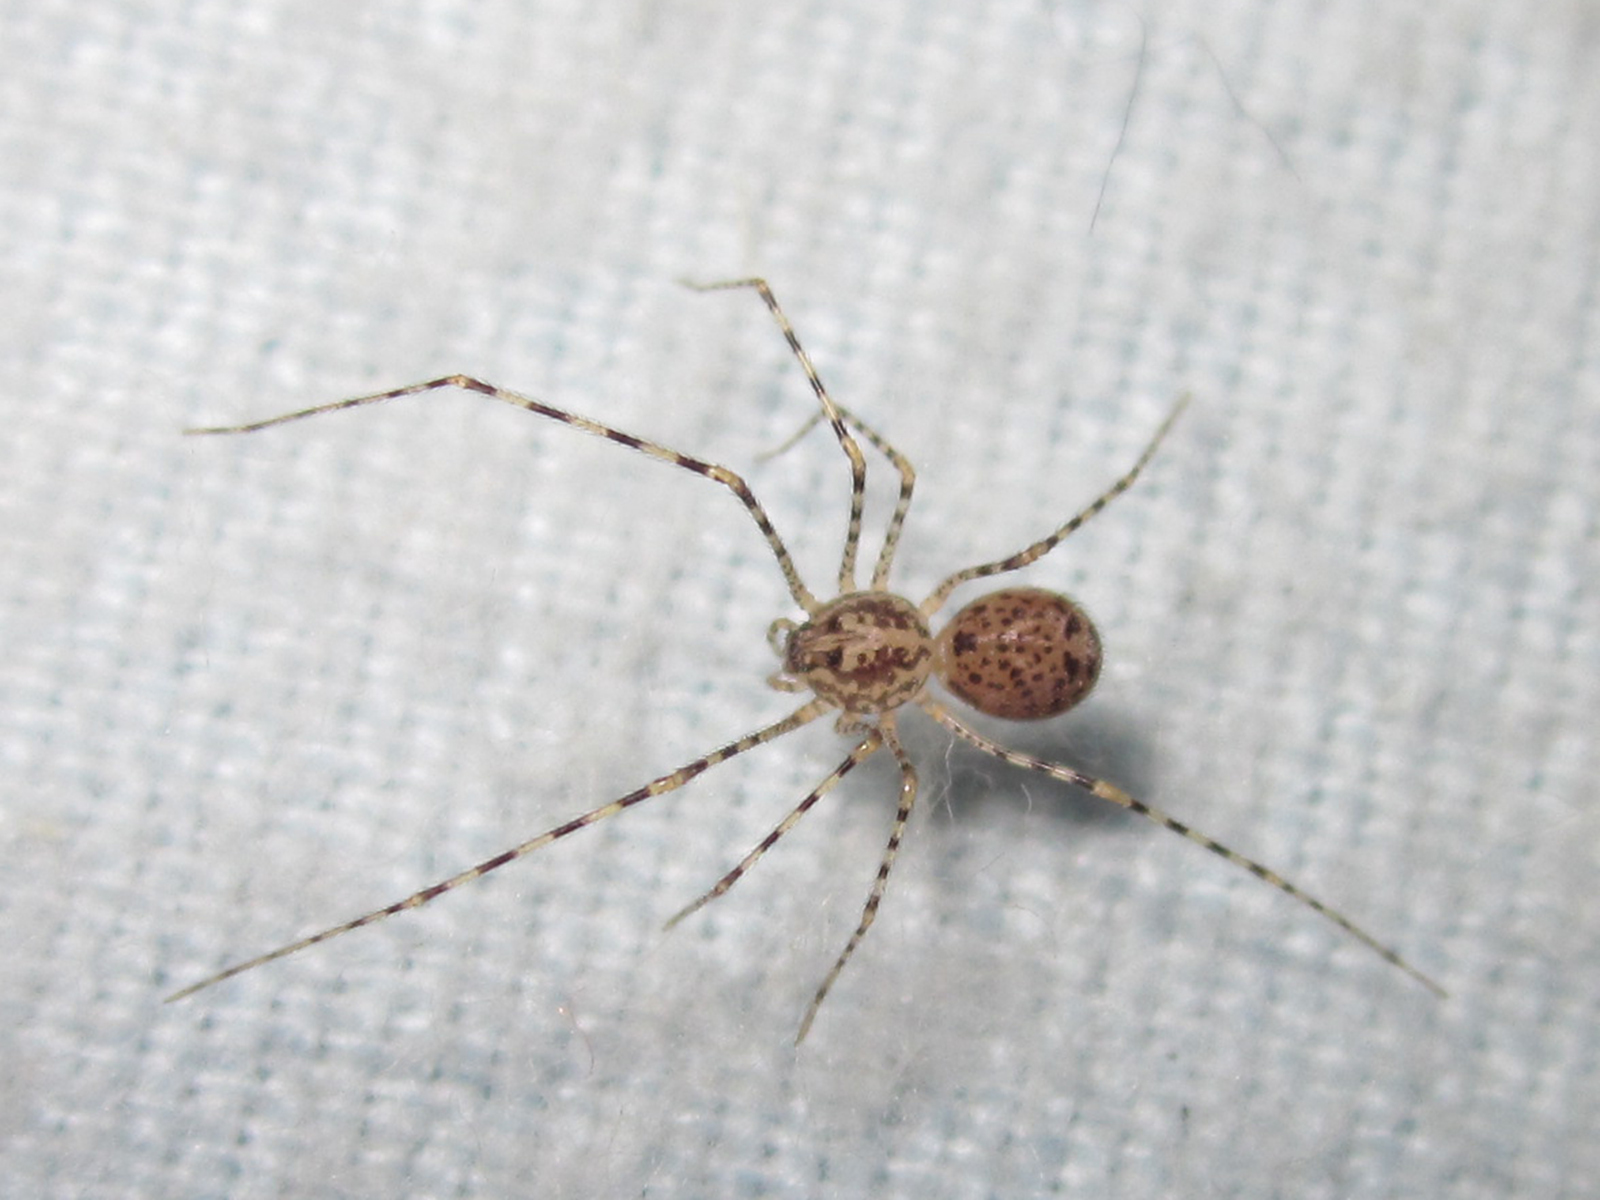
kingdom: Animalia
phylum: Arthropoda
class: Arachnida
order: Araneae
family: Scytodidae
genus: Scytodes
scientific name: Scytodes globula
